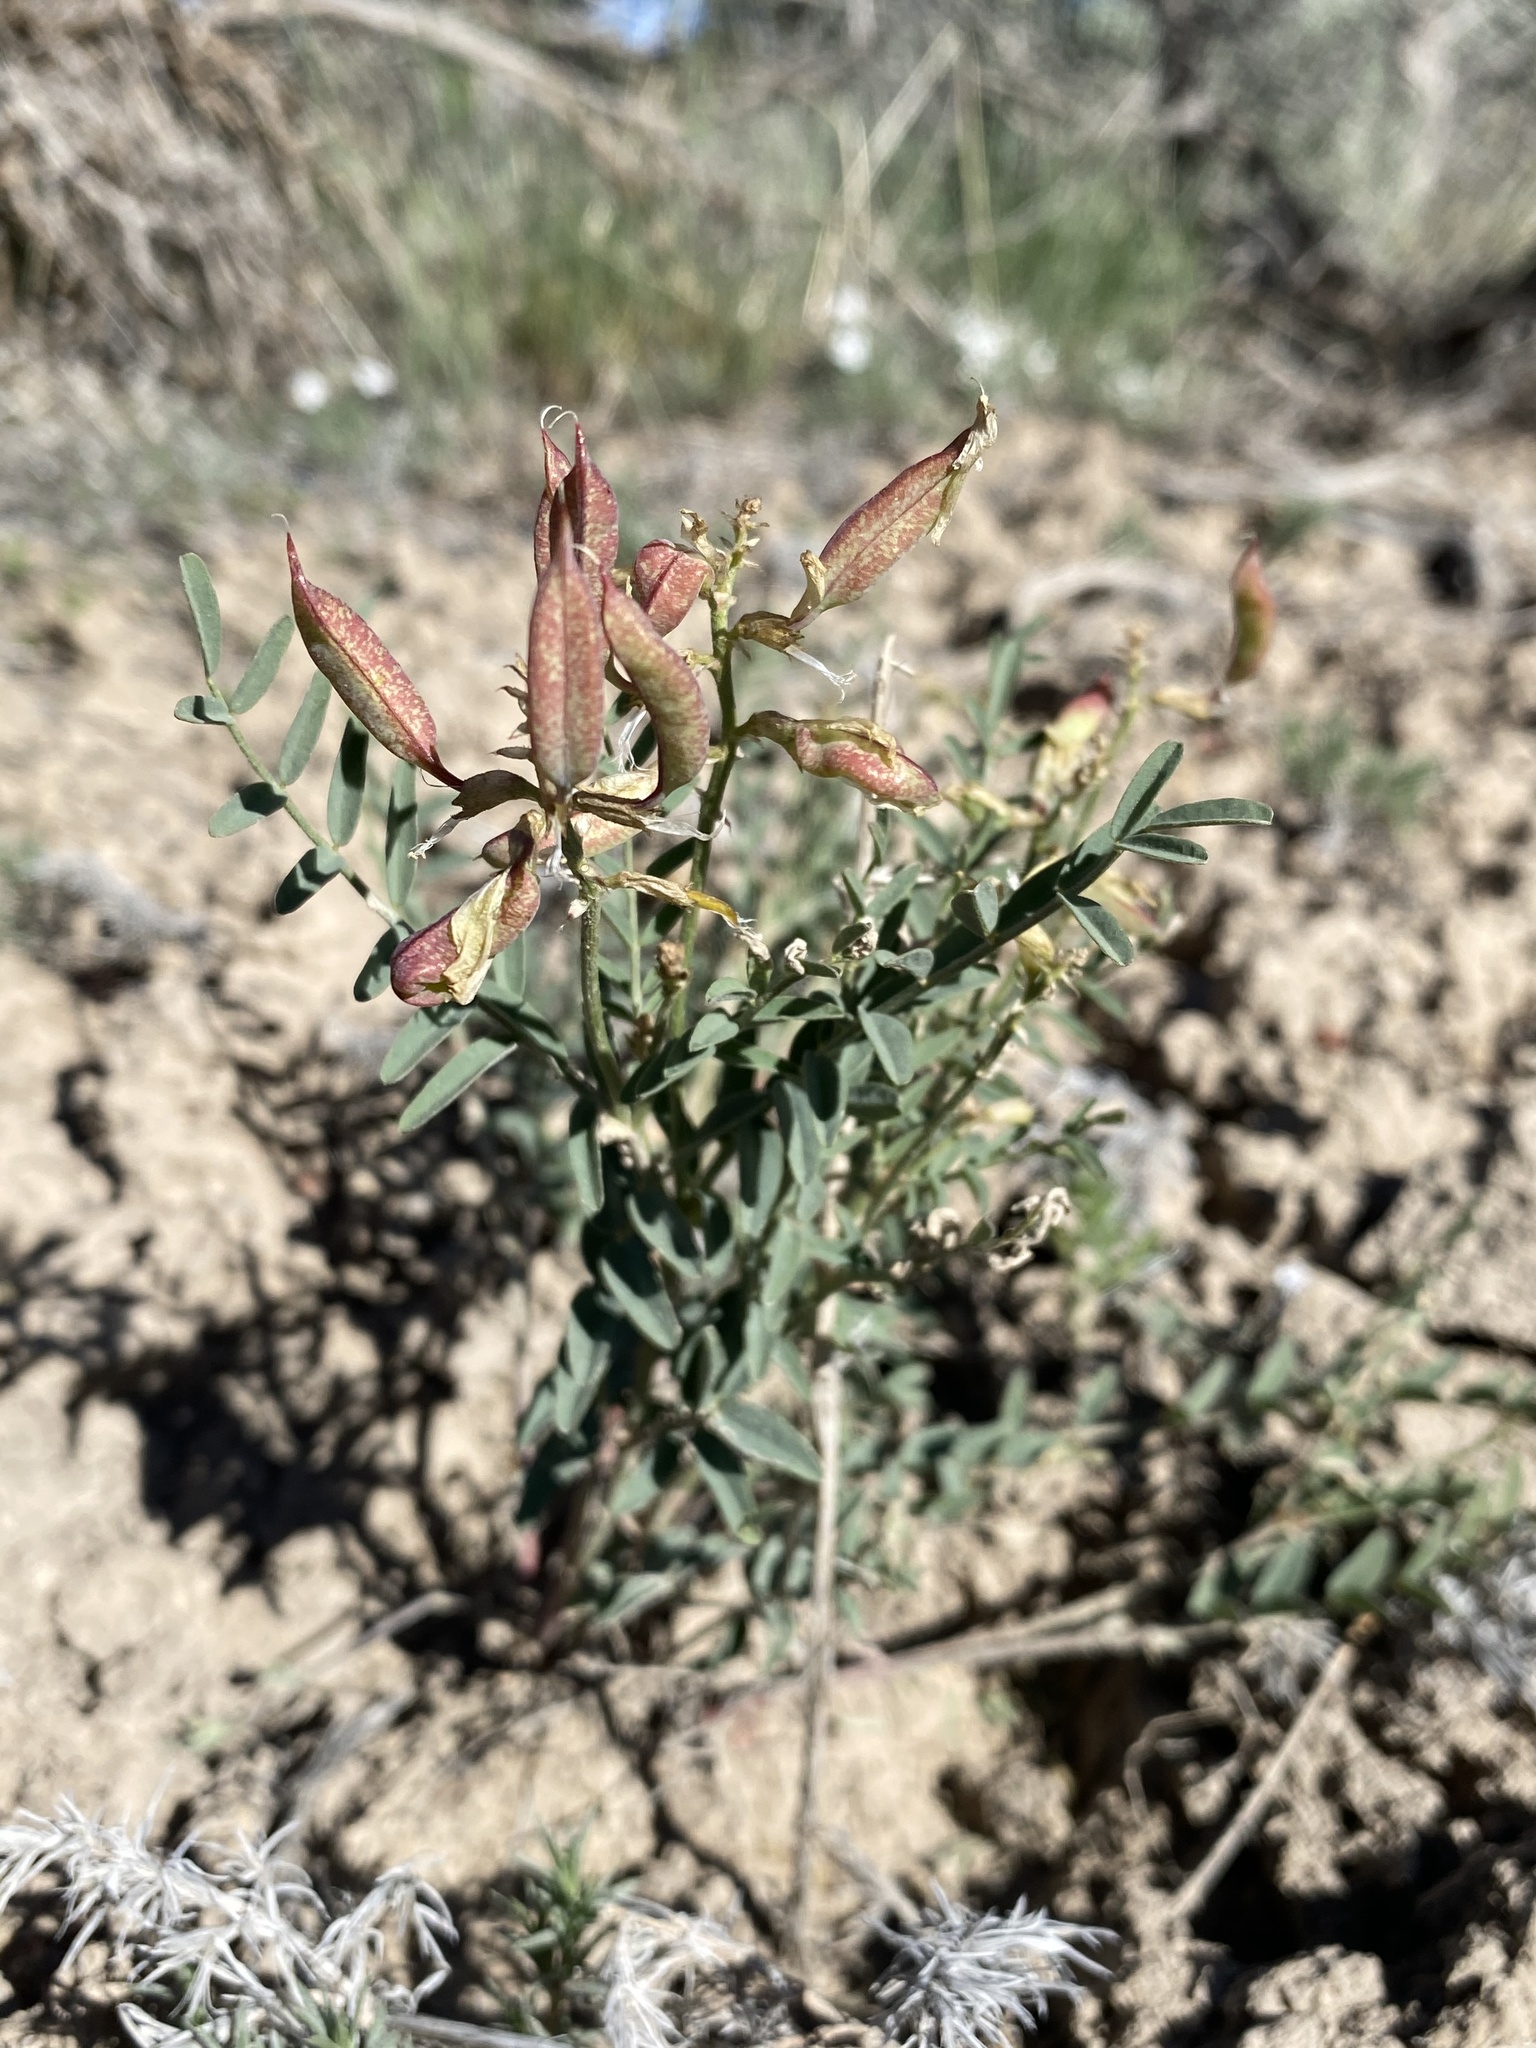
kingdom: Plantae
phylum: Tracheophyta
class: Magnoliopsida
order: Fabales
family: Fabaceae
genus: Astragalus
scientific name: Astragalus eremiticus
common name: Hermit milk-vetch
